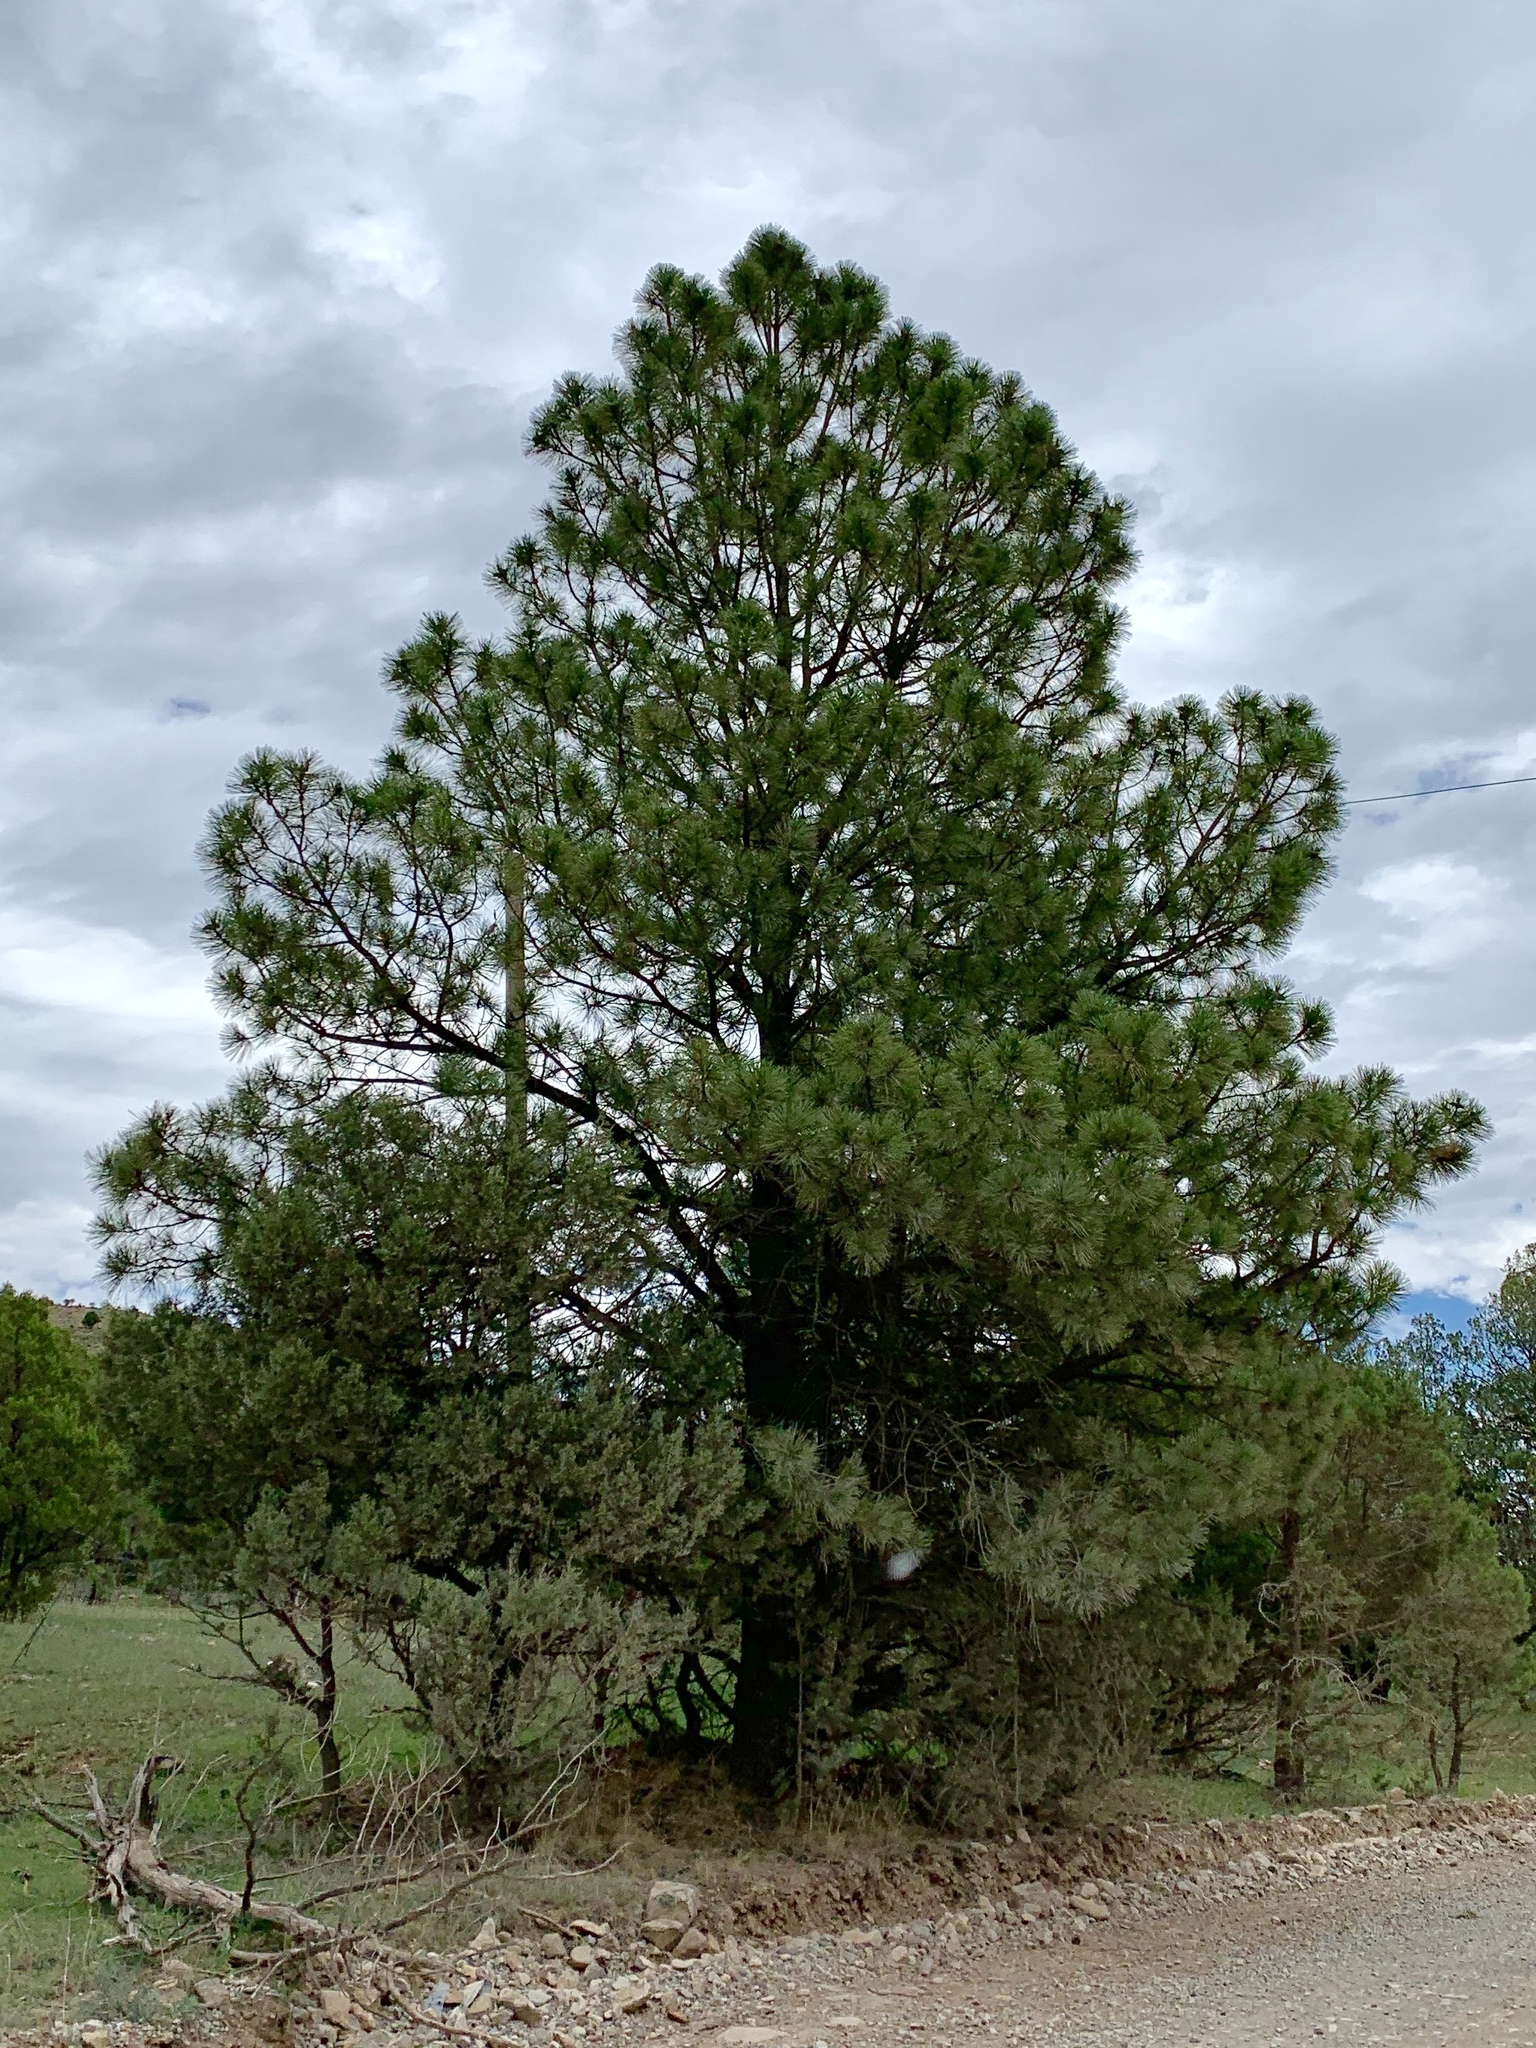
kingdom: Plantae
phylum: Tracheophyta
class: Pinopsida
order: Pinales
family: Pinaceae
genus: Pinus
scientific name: Pinus ponderosa
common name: Western yellow-pine
